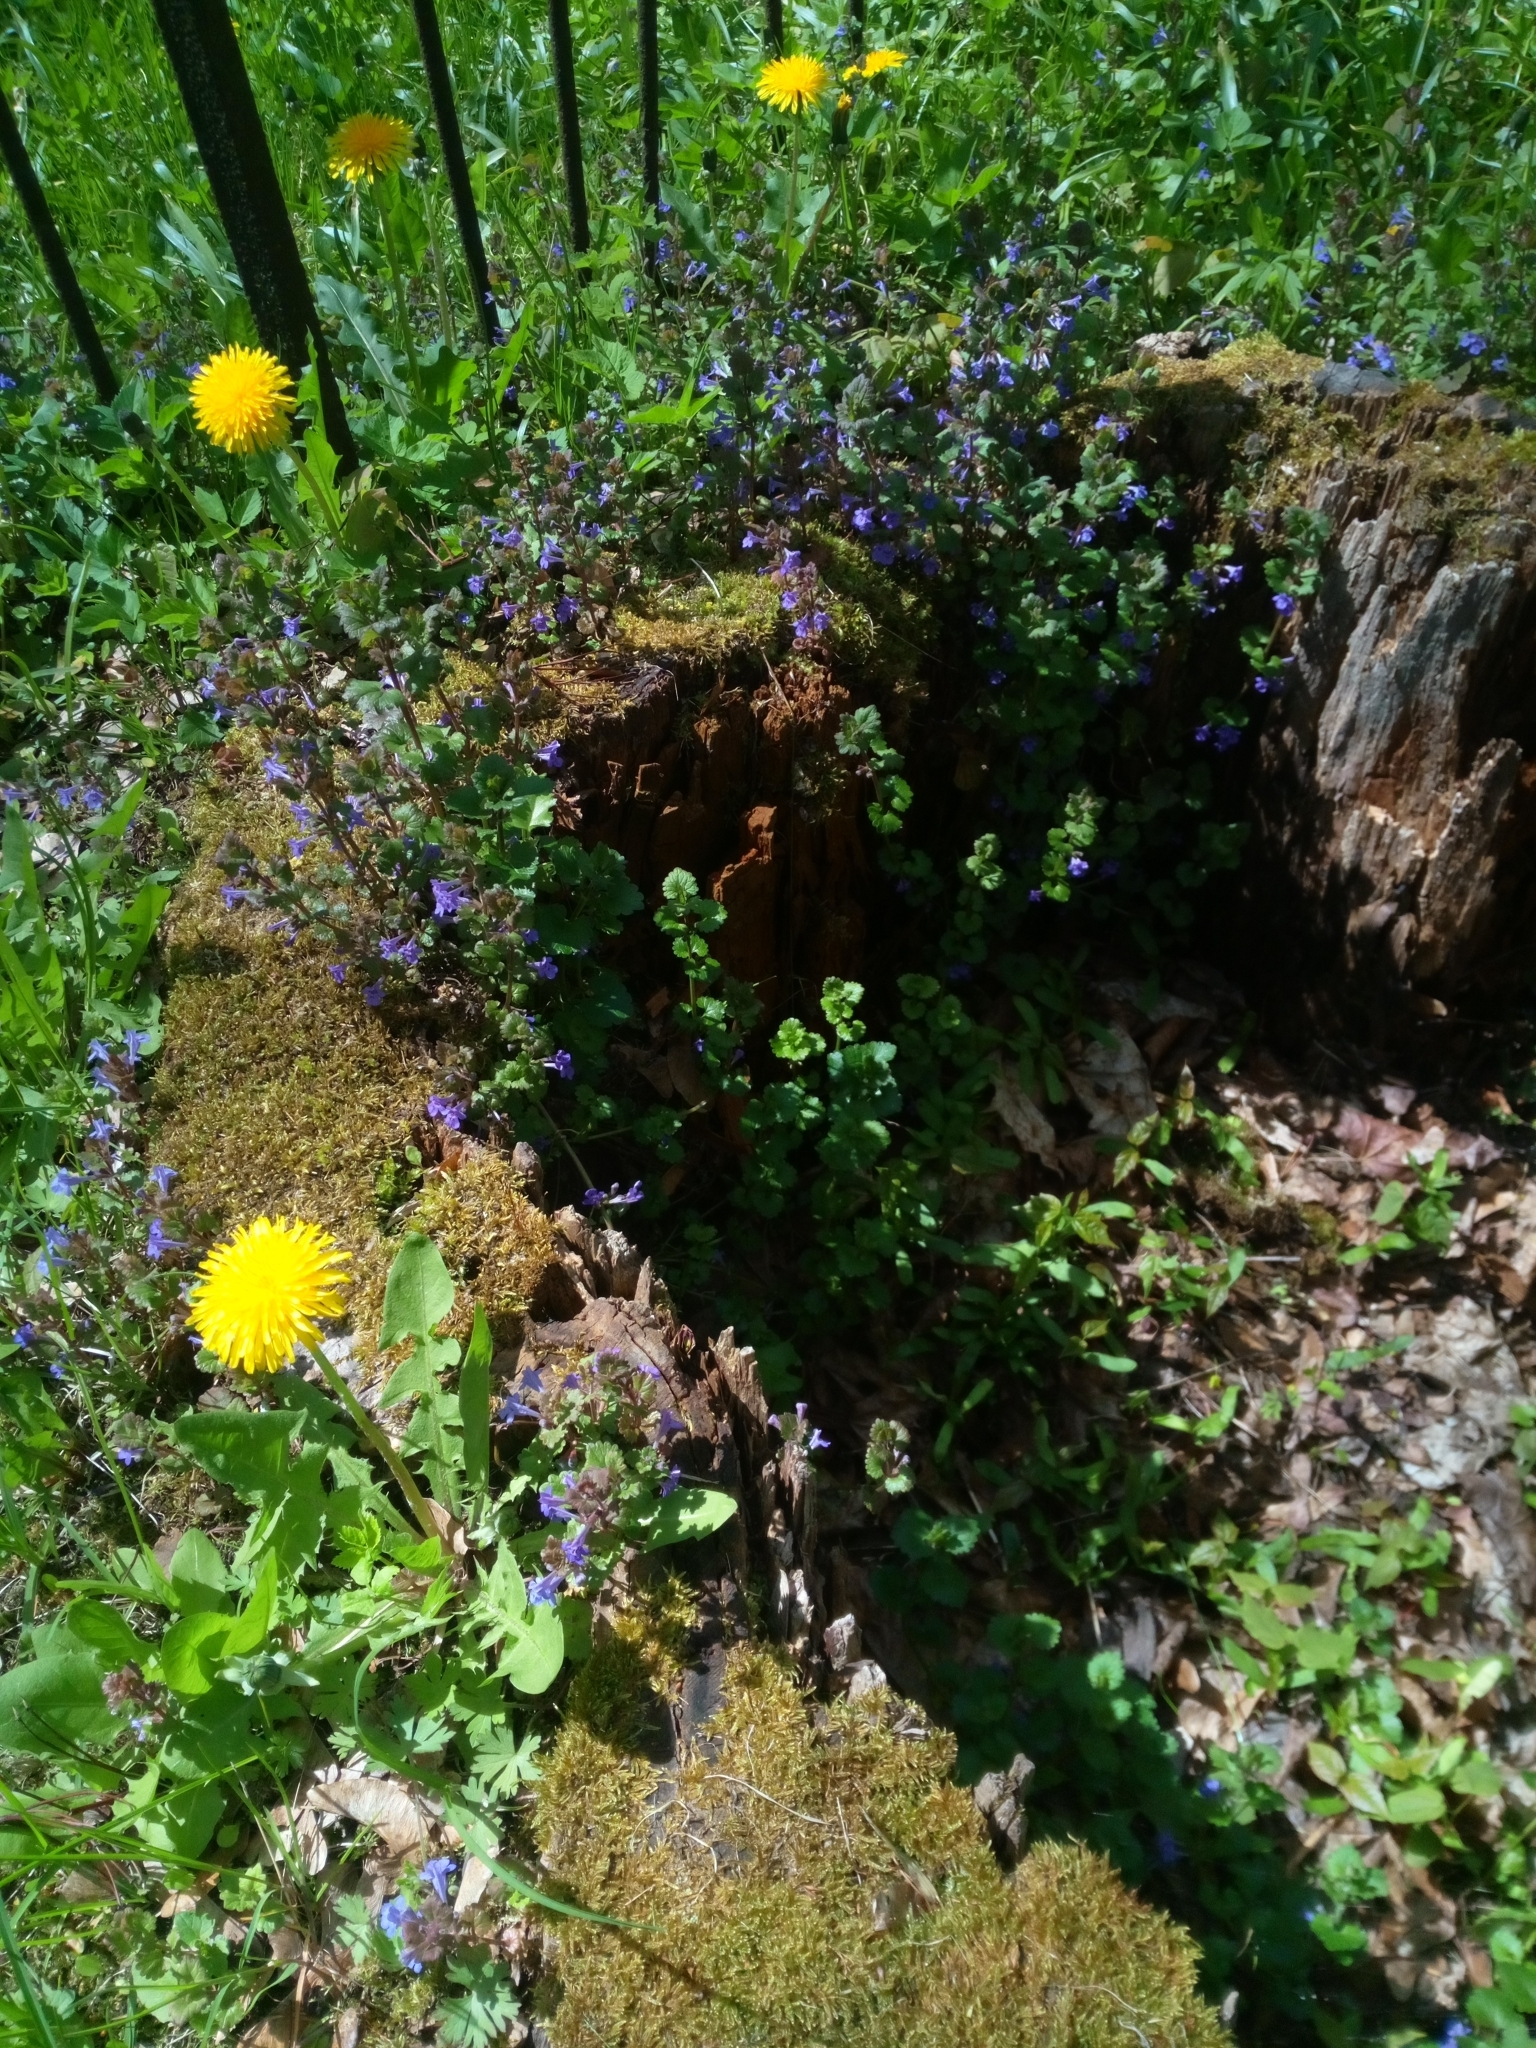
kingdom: Plantae
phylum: Tracheophyta
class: Magnoliopsida
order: Lamiales
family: Lamiaceae
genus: Glechoma
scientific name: Glechoma hederacea
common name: Ground ivy
